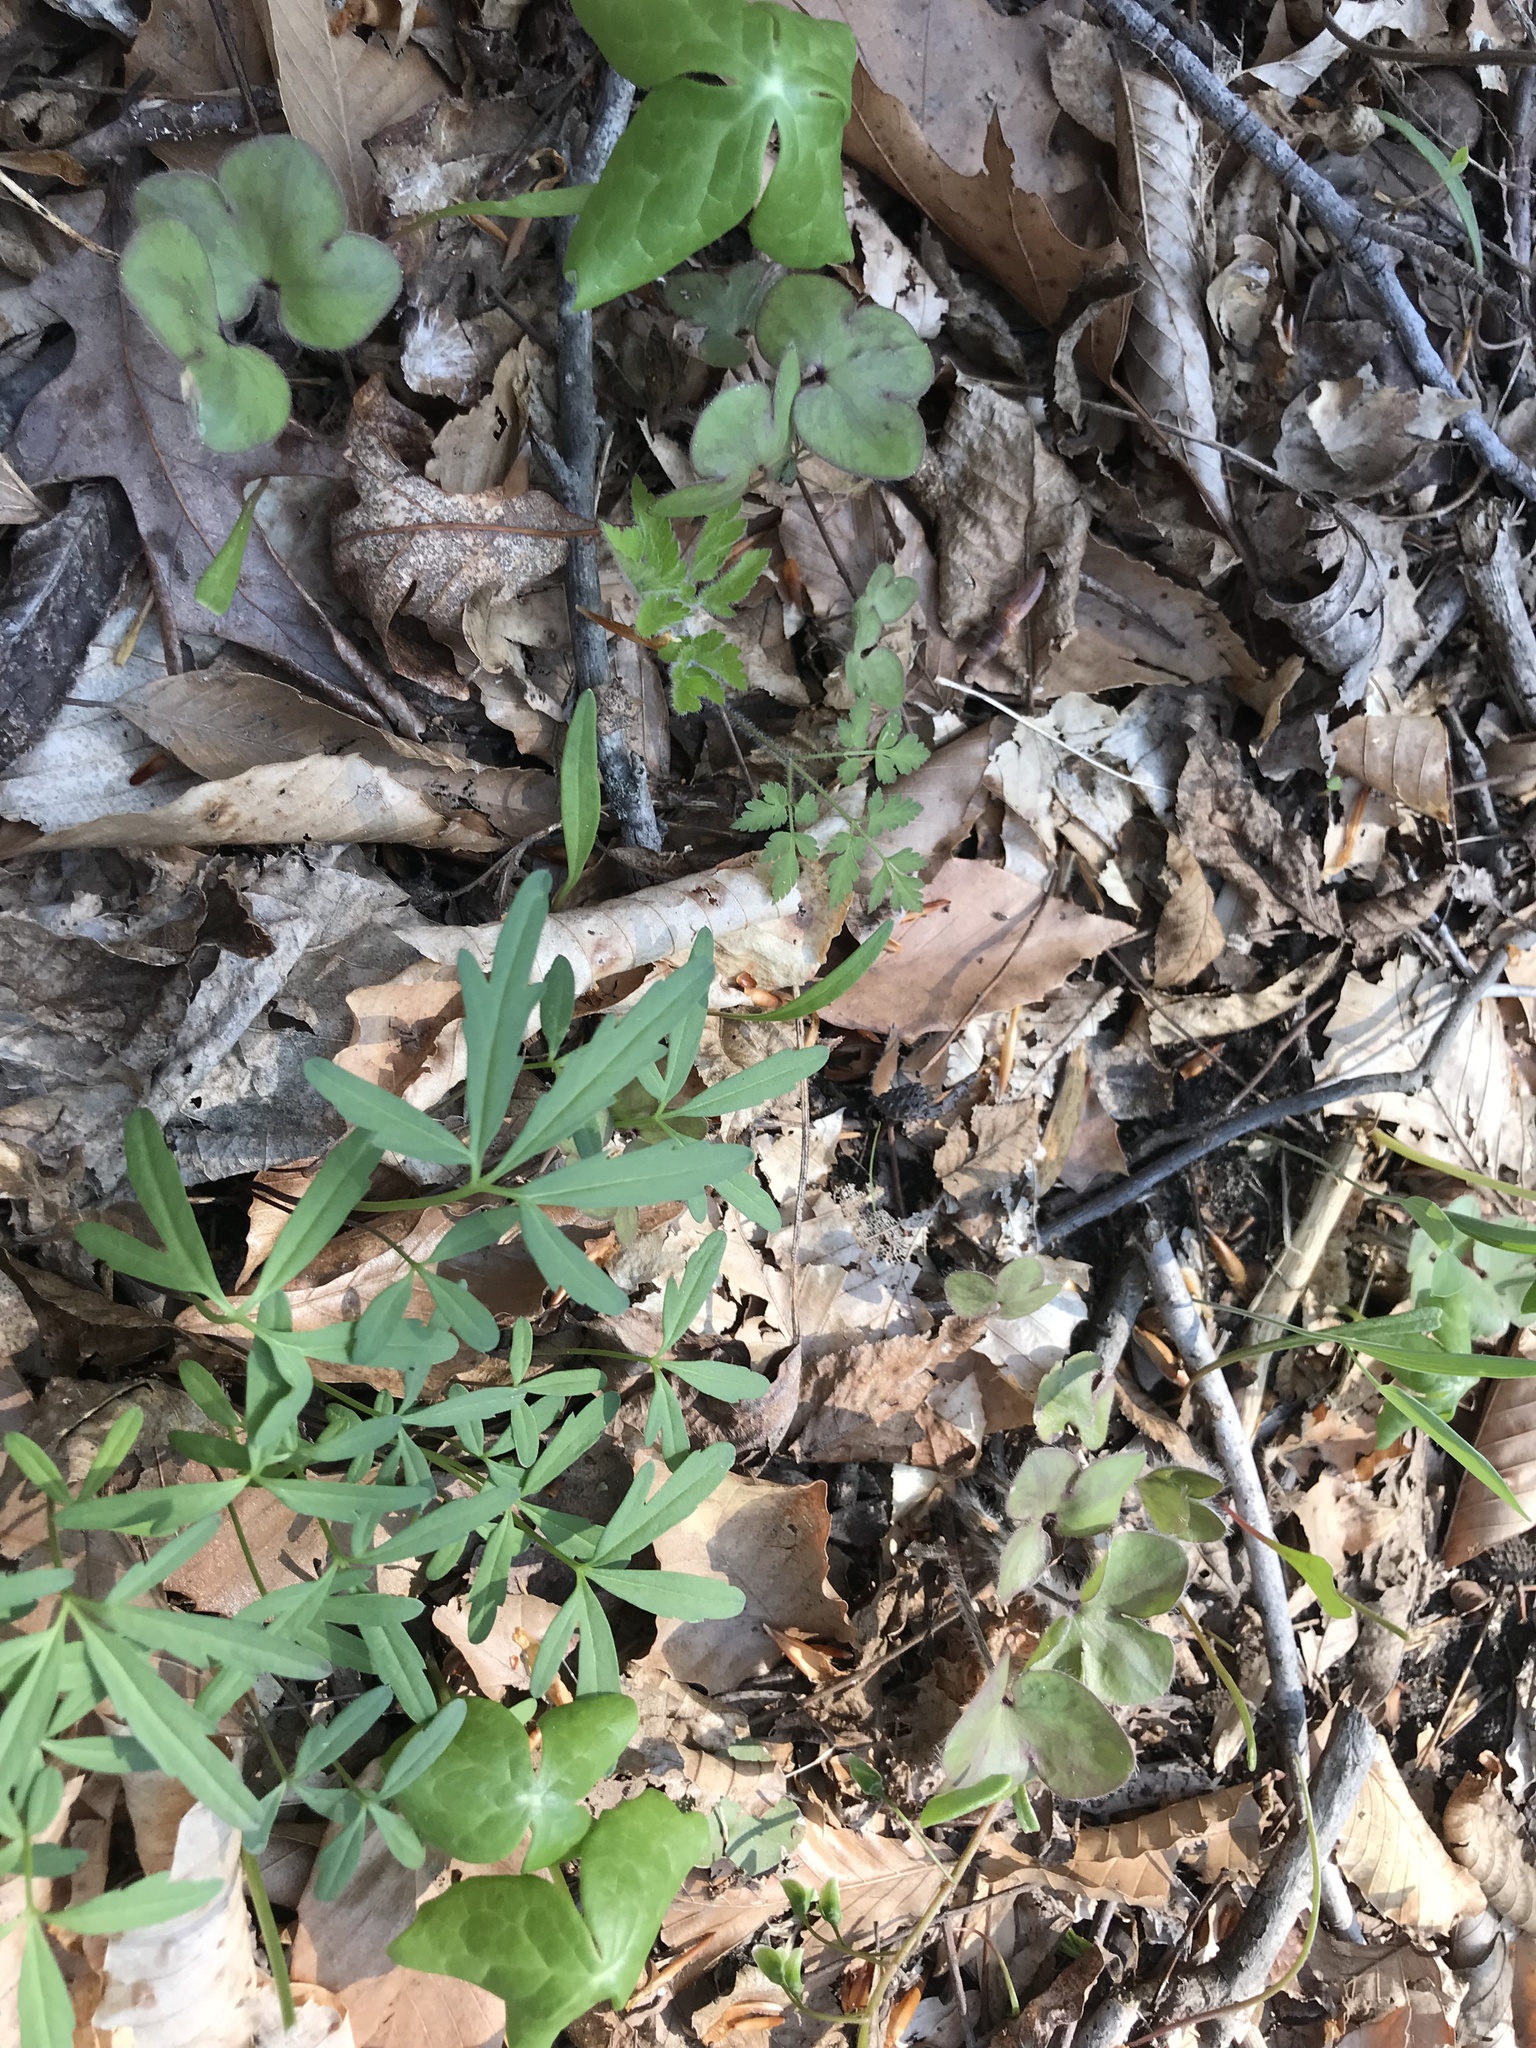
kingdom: Plantae
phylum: Tracheophyta
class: Magnoliopsida
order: Brassicales
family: Brassicaceae
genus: Cardamine
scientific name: Cardamine concatenata
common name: Cut-leaf toothcup
